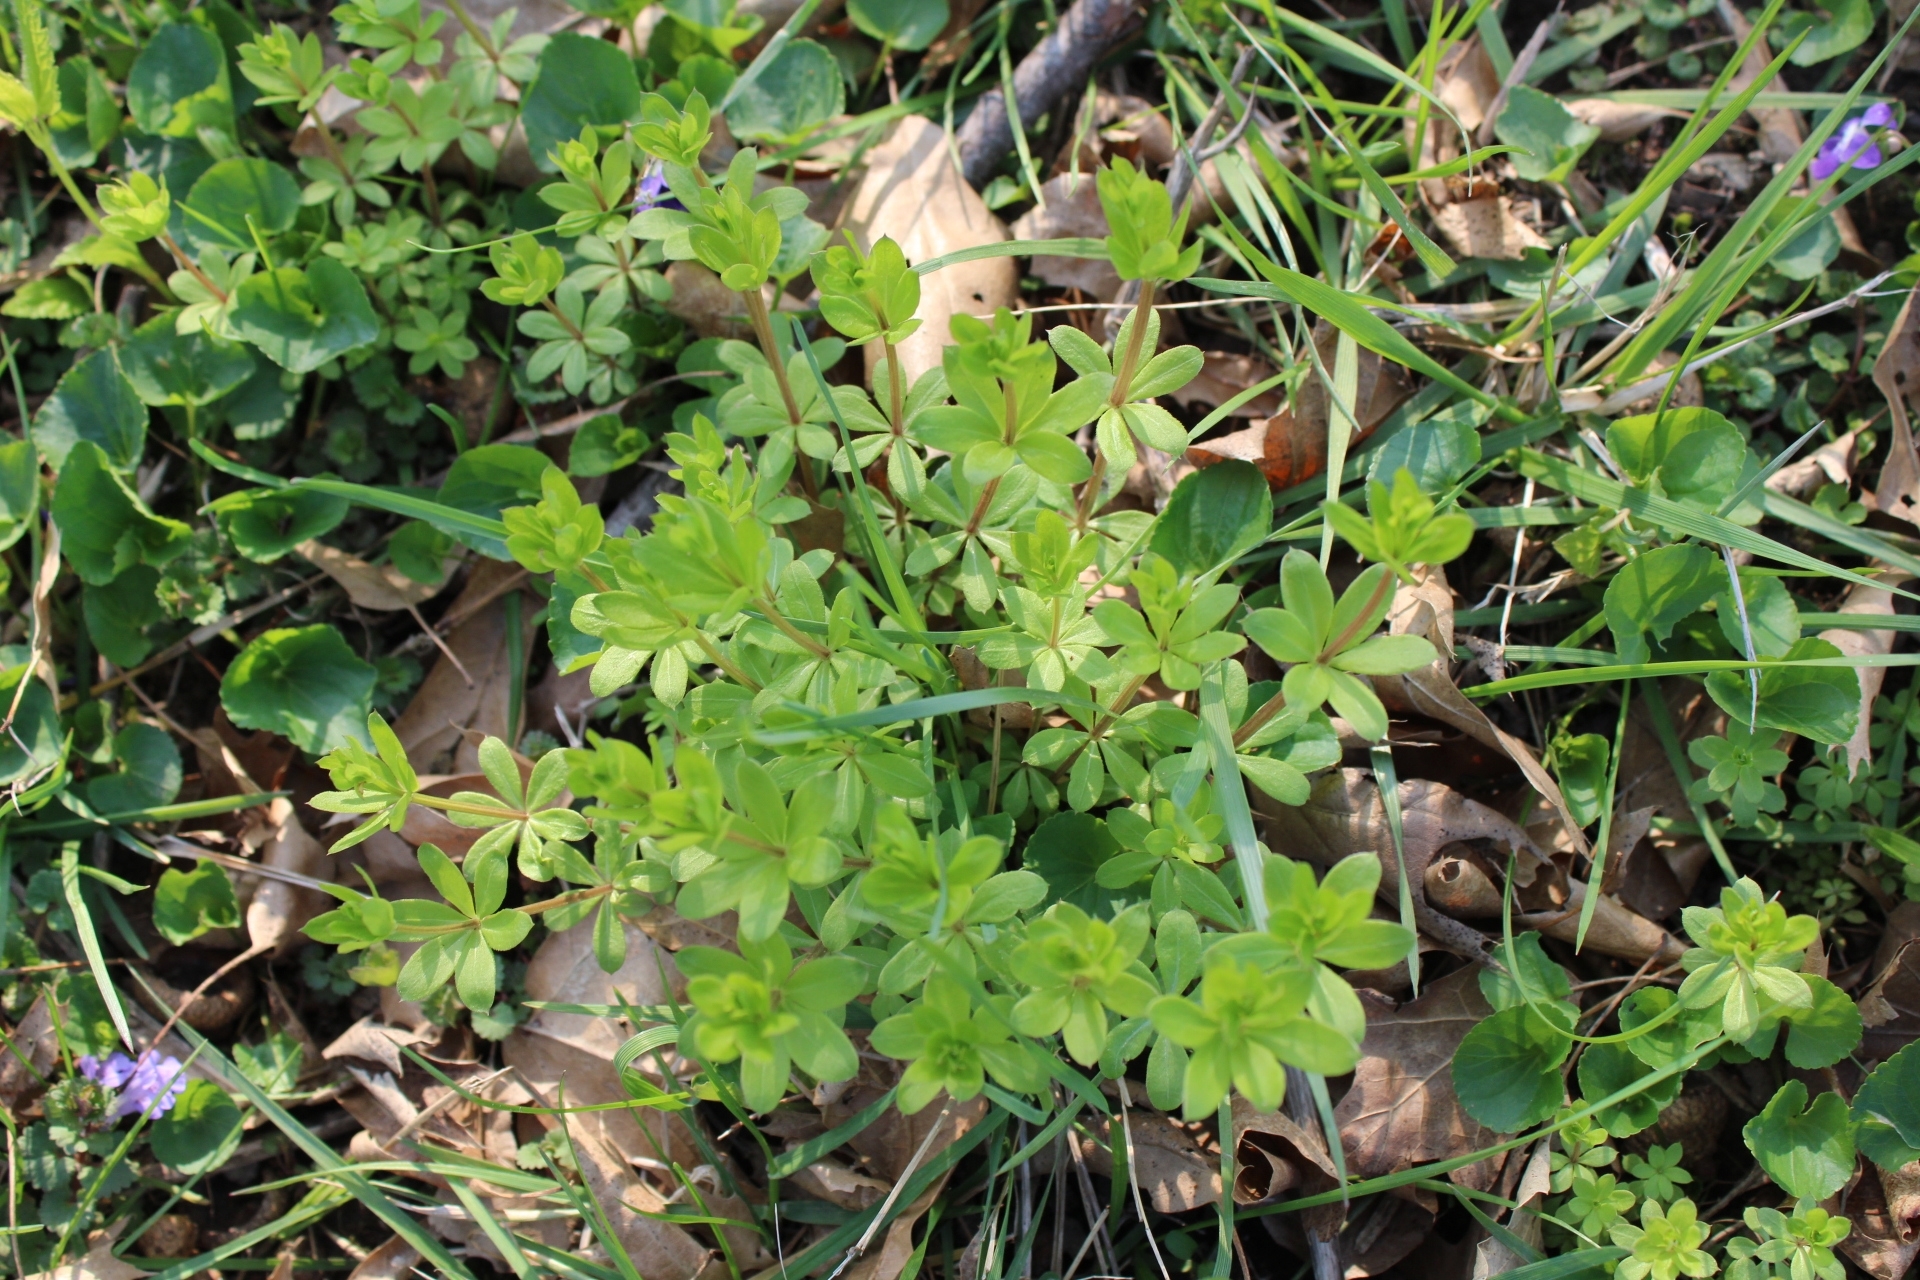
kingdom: Plantae
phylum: Tracheophyta
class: Magnoliopsida
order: Gentianales
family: Rubiaceae
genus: Galium
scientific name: Galium triflorum
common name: Fragrant bedstraw
